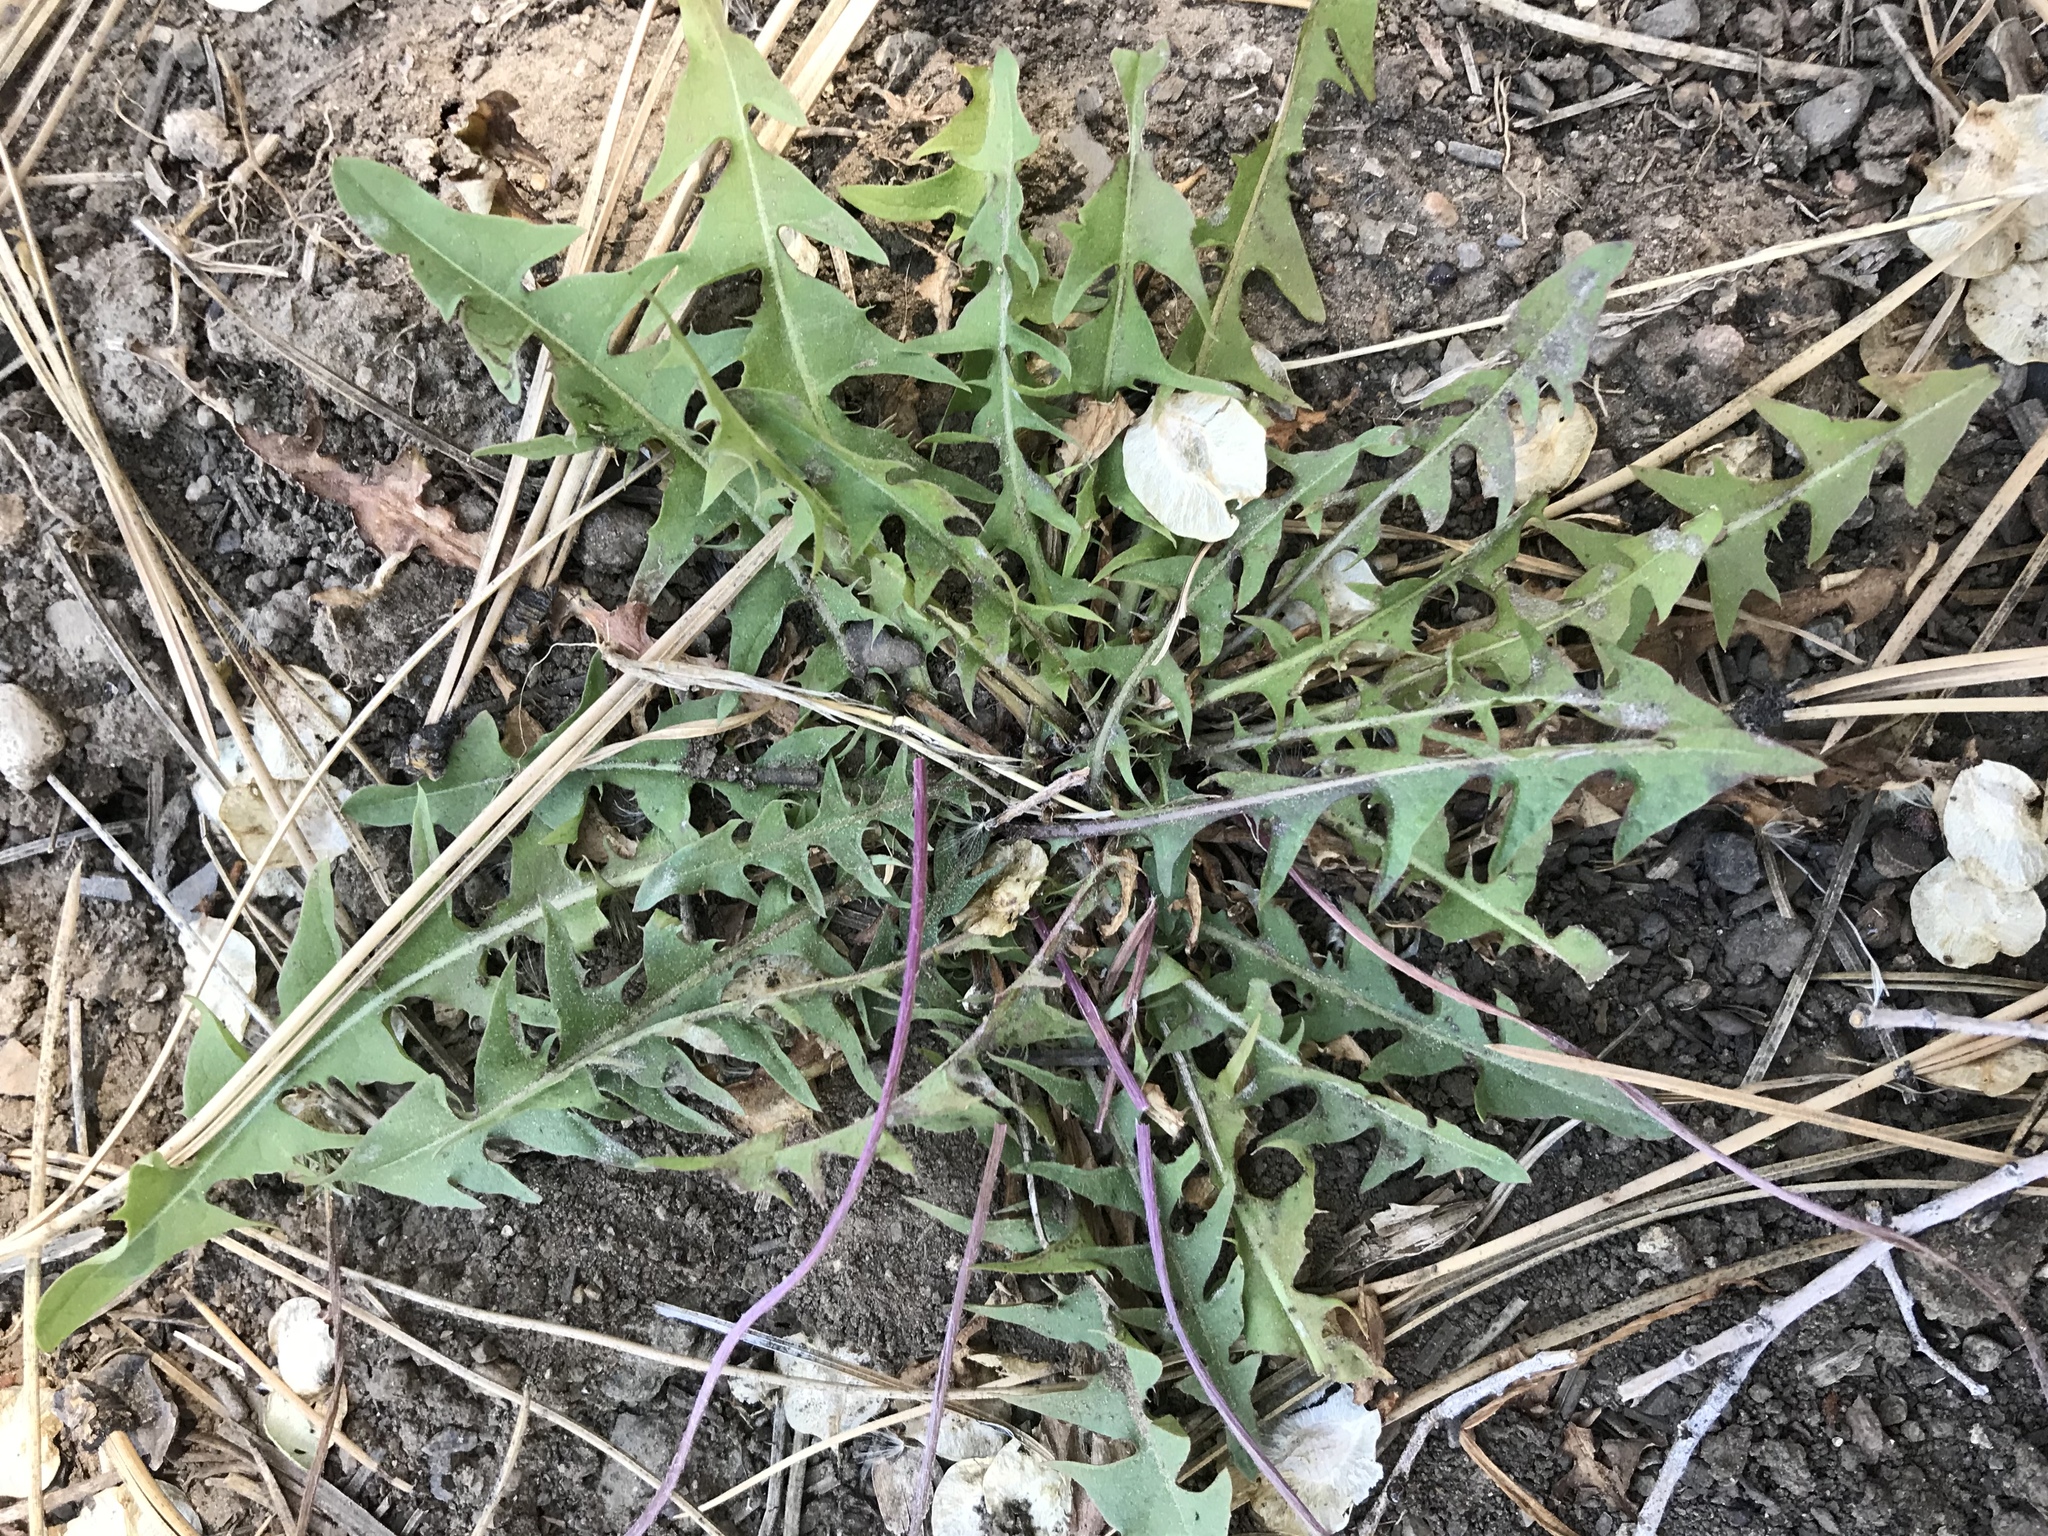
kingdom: Plantae
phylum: Tracheophyta
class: Magnoliopsida
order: Asterales
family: Asteraceae
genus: Taraxacum
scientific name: Taraxacum officinale
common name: Common dandelion
